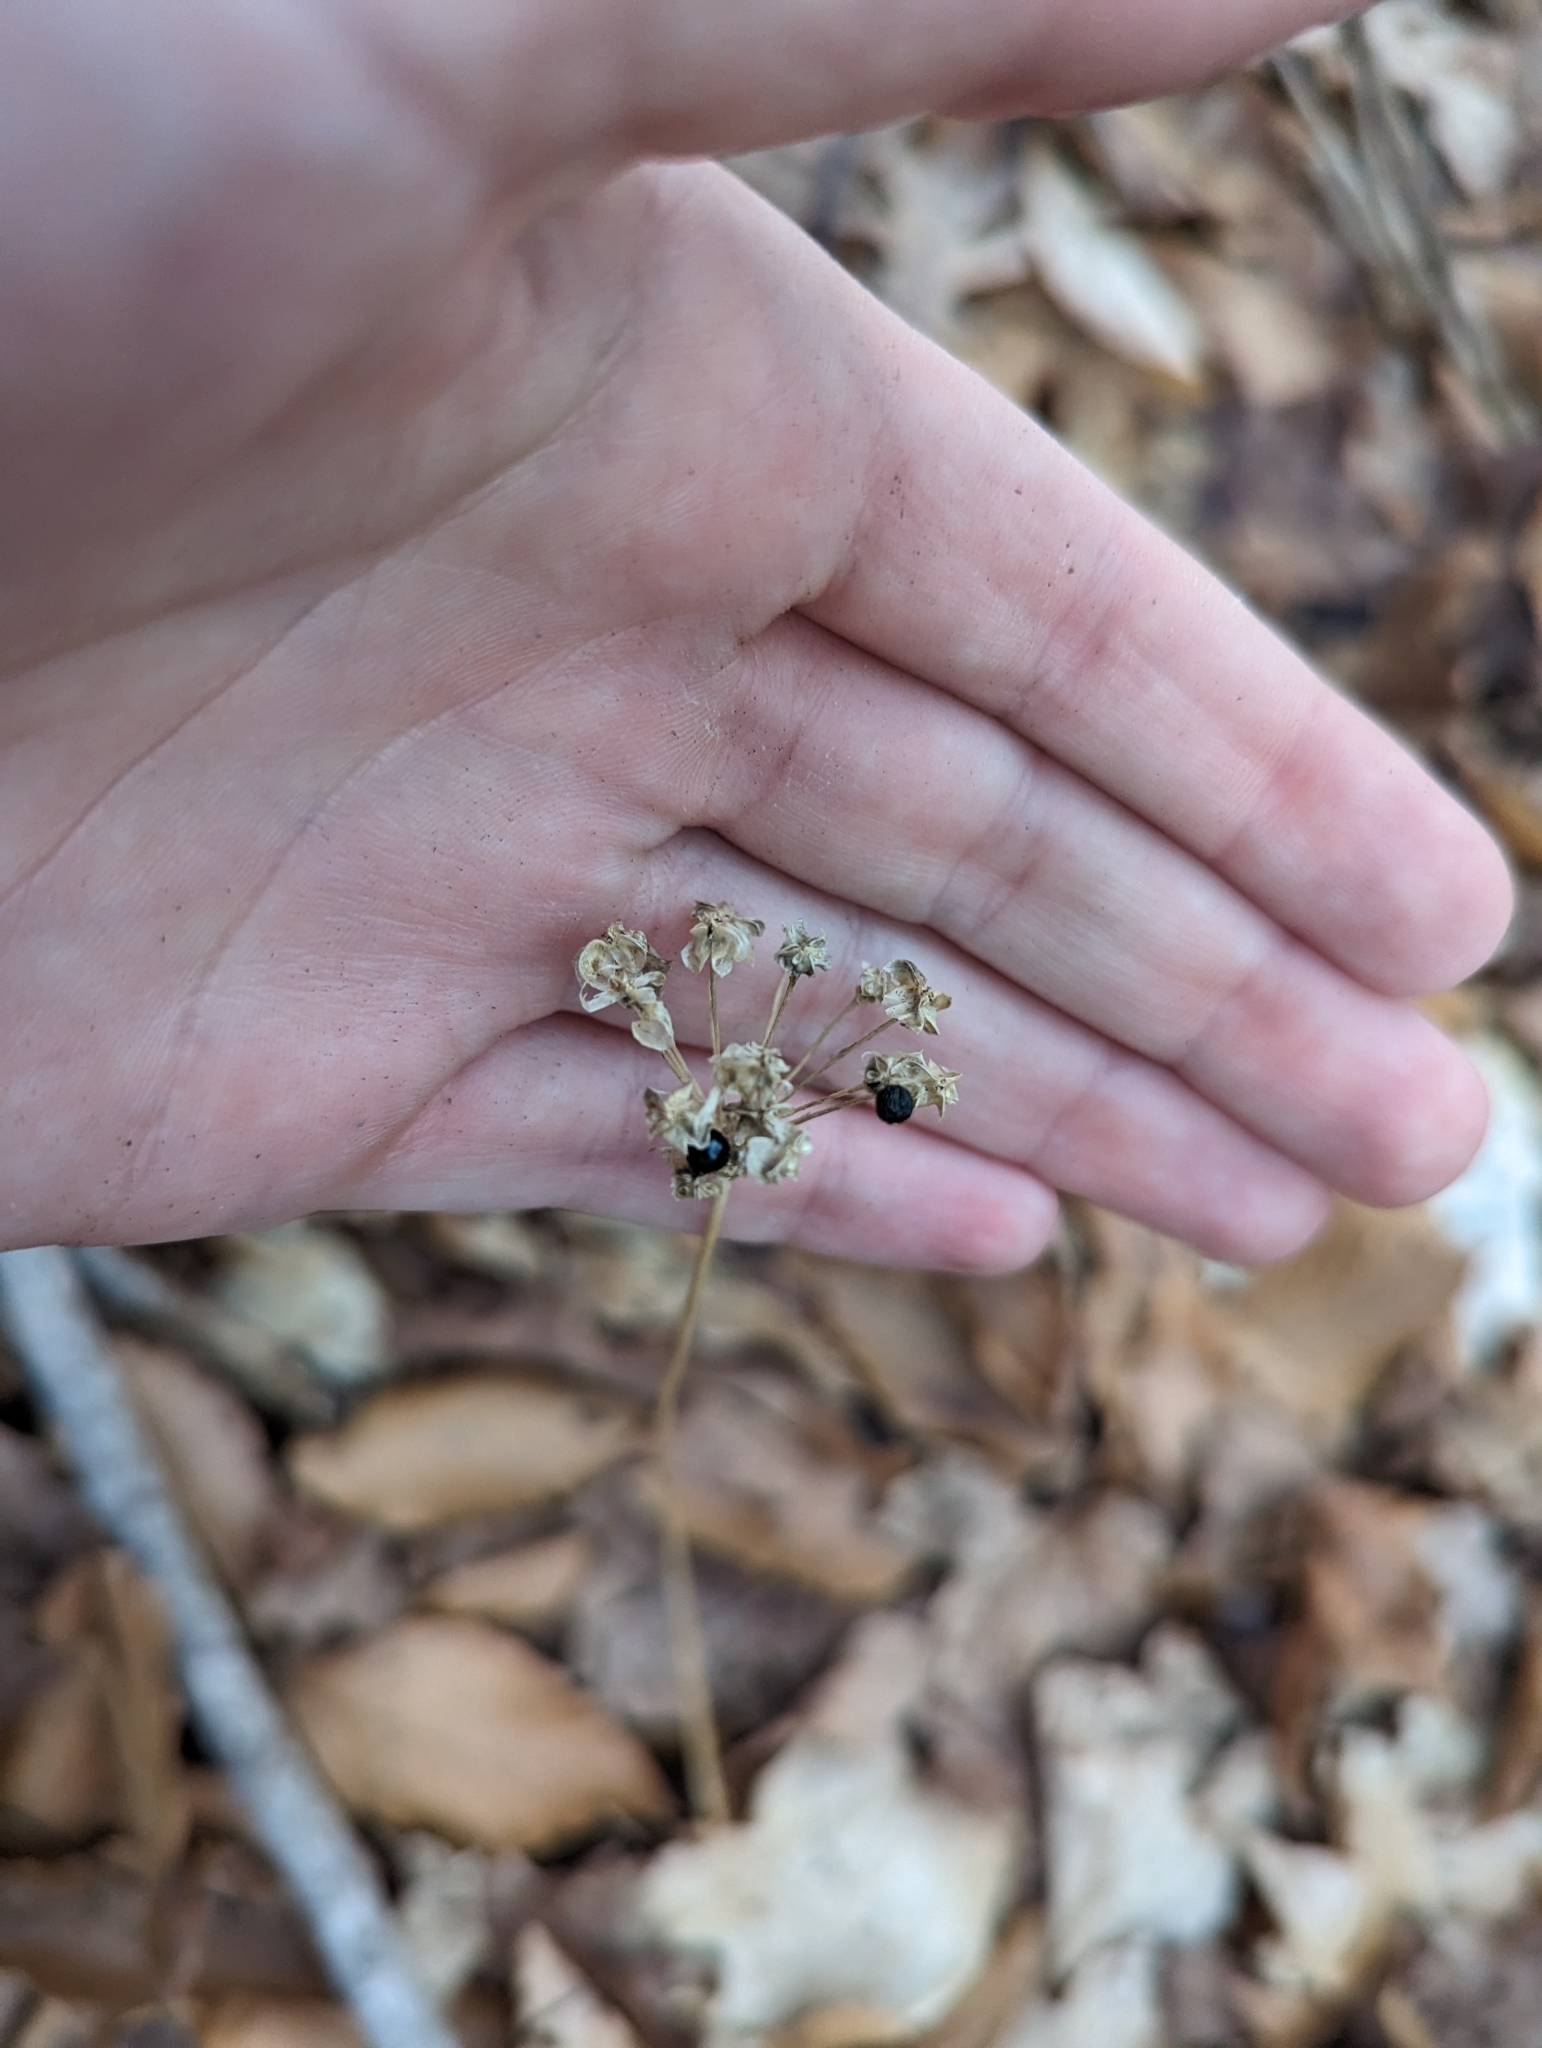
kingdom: Plantae
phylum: Tracheophyta
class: Liliopsida
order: Asparagales
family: Amaryllidaceae
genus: Allium
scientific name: Allium tricoccum
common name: Ramp
